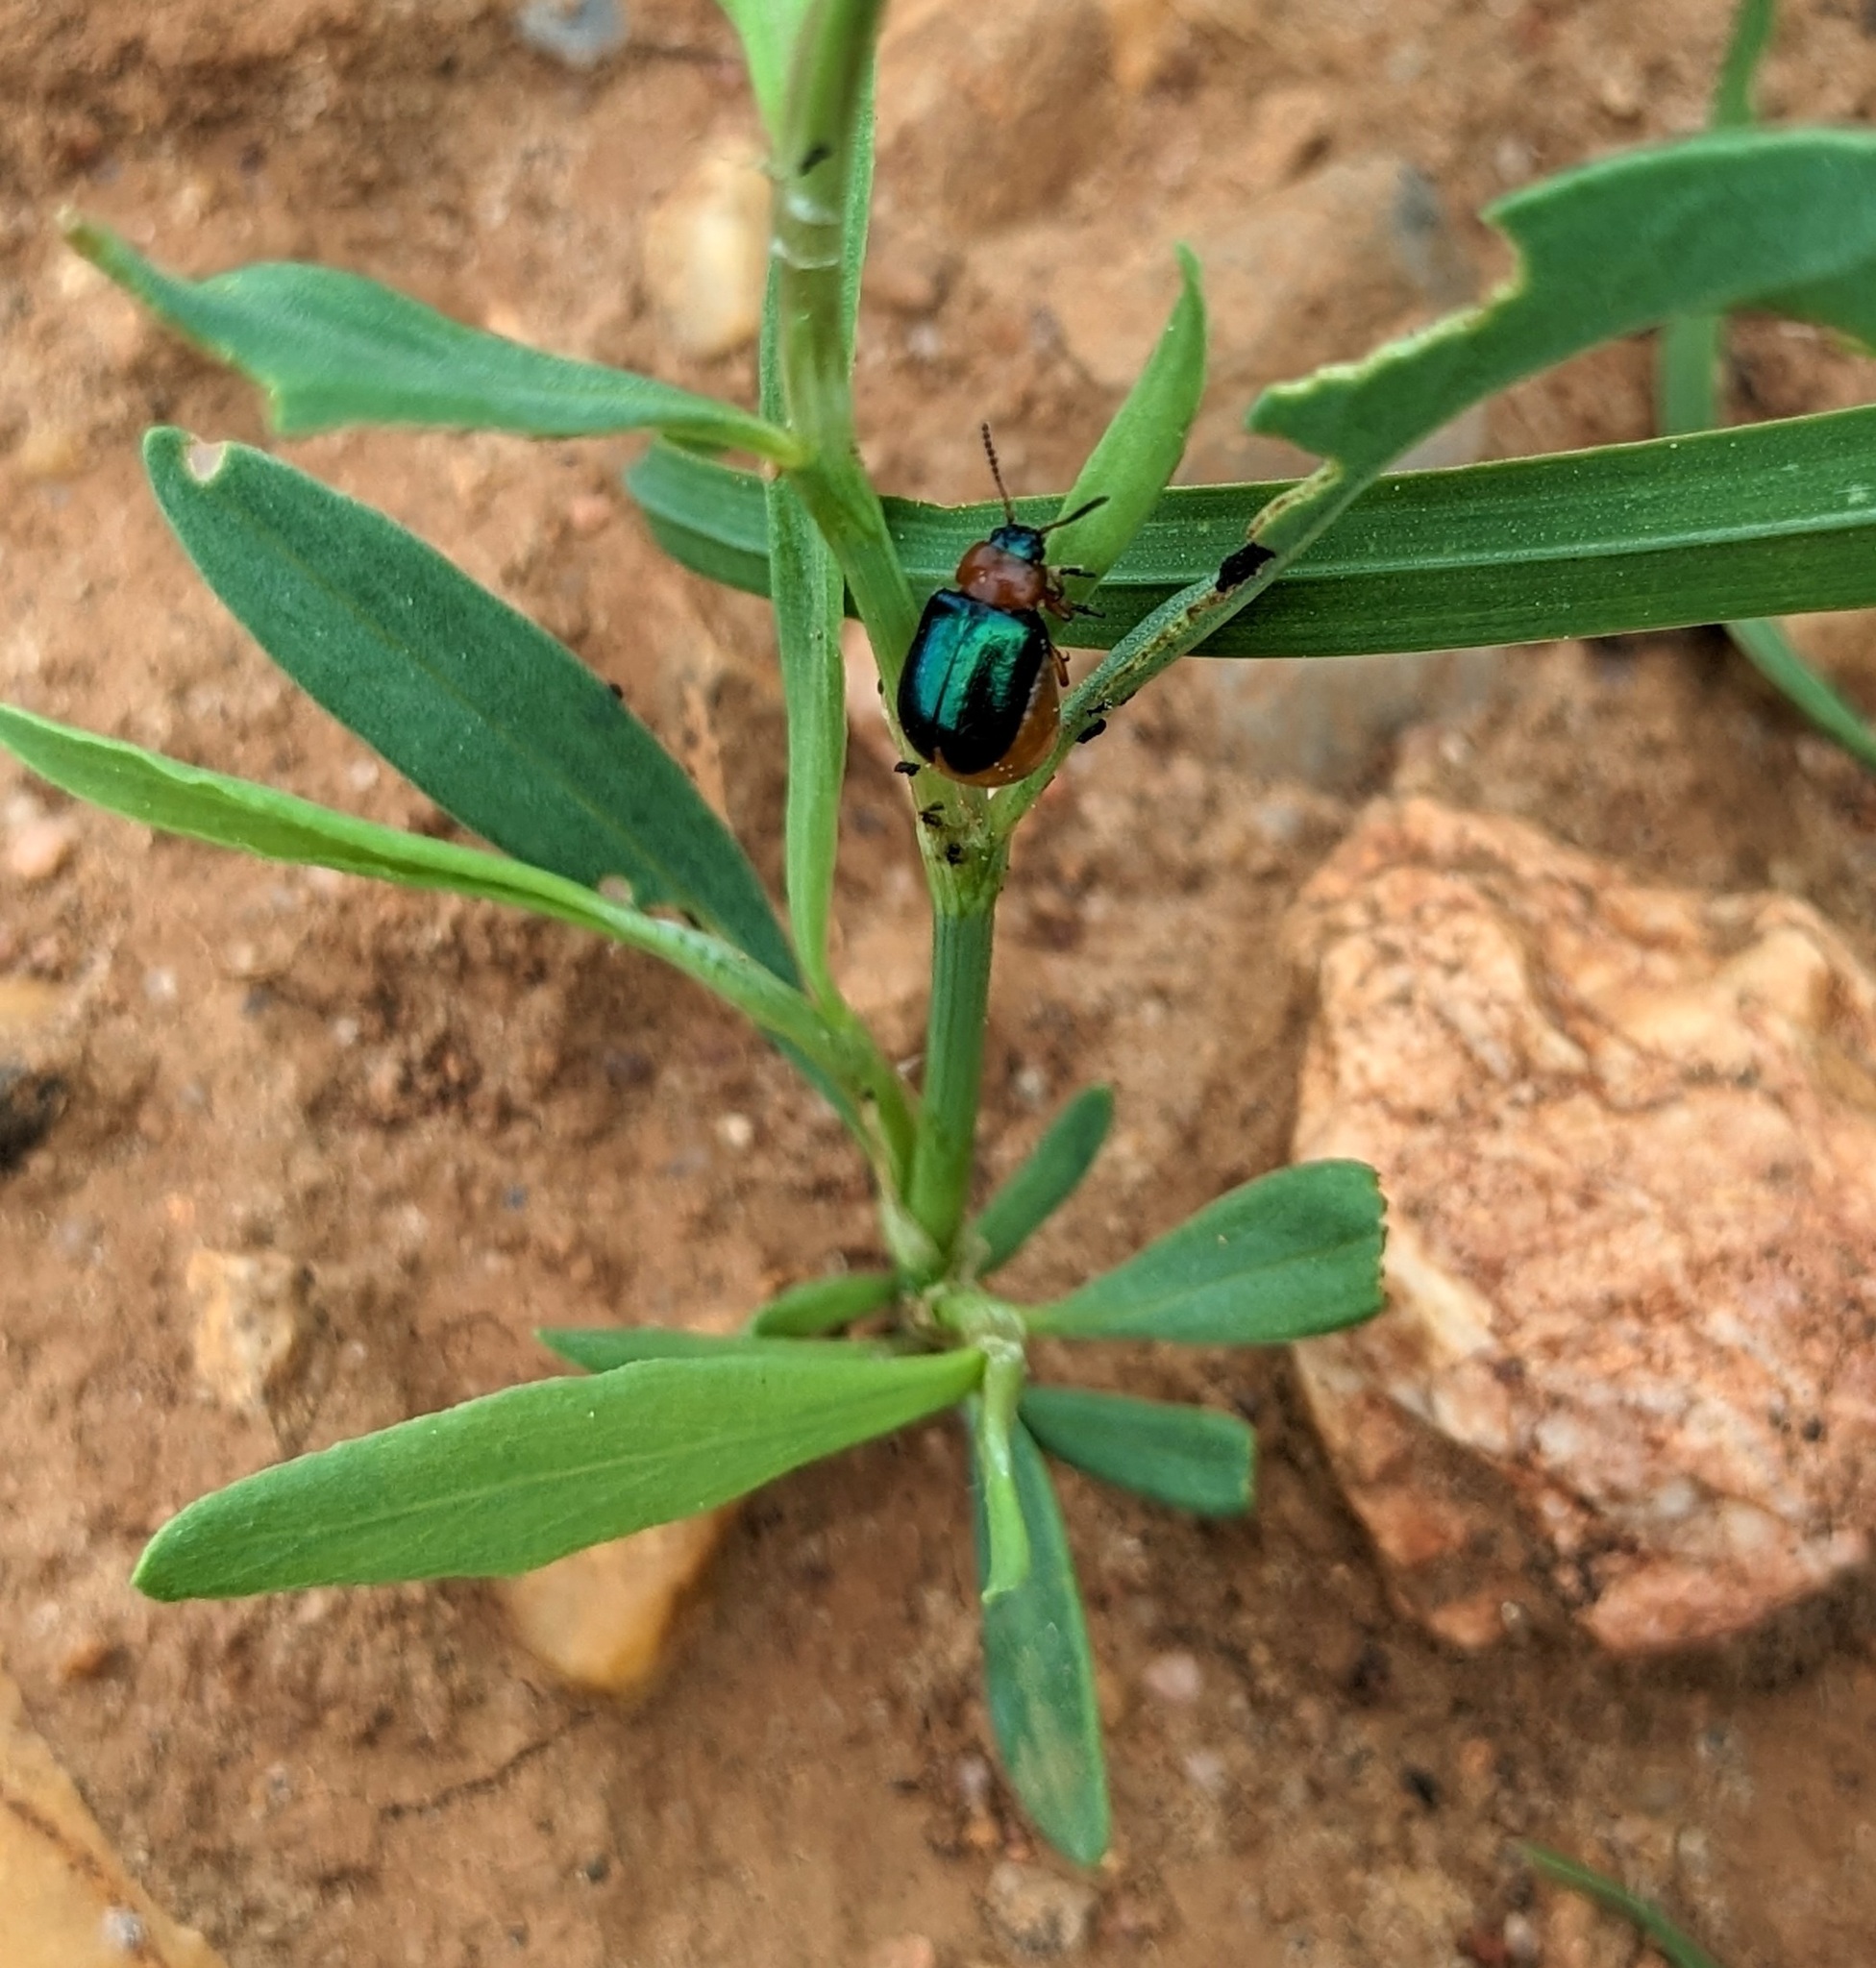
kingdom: Animalia
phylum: Arthropoda
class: Insecta
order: Coleoptera
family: Chrysomelidae
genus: Gastrophysa
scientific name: Gastrophysa polygoni
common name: Knotweed leaf beetle
